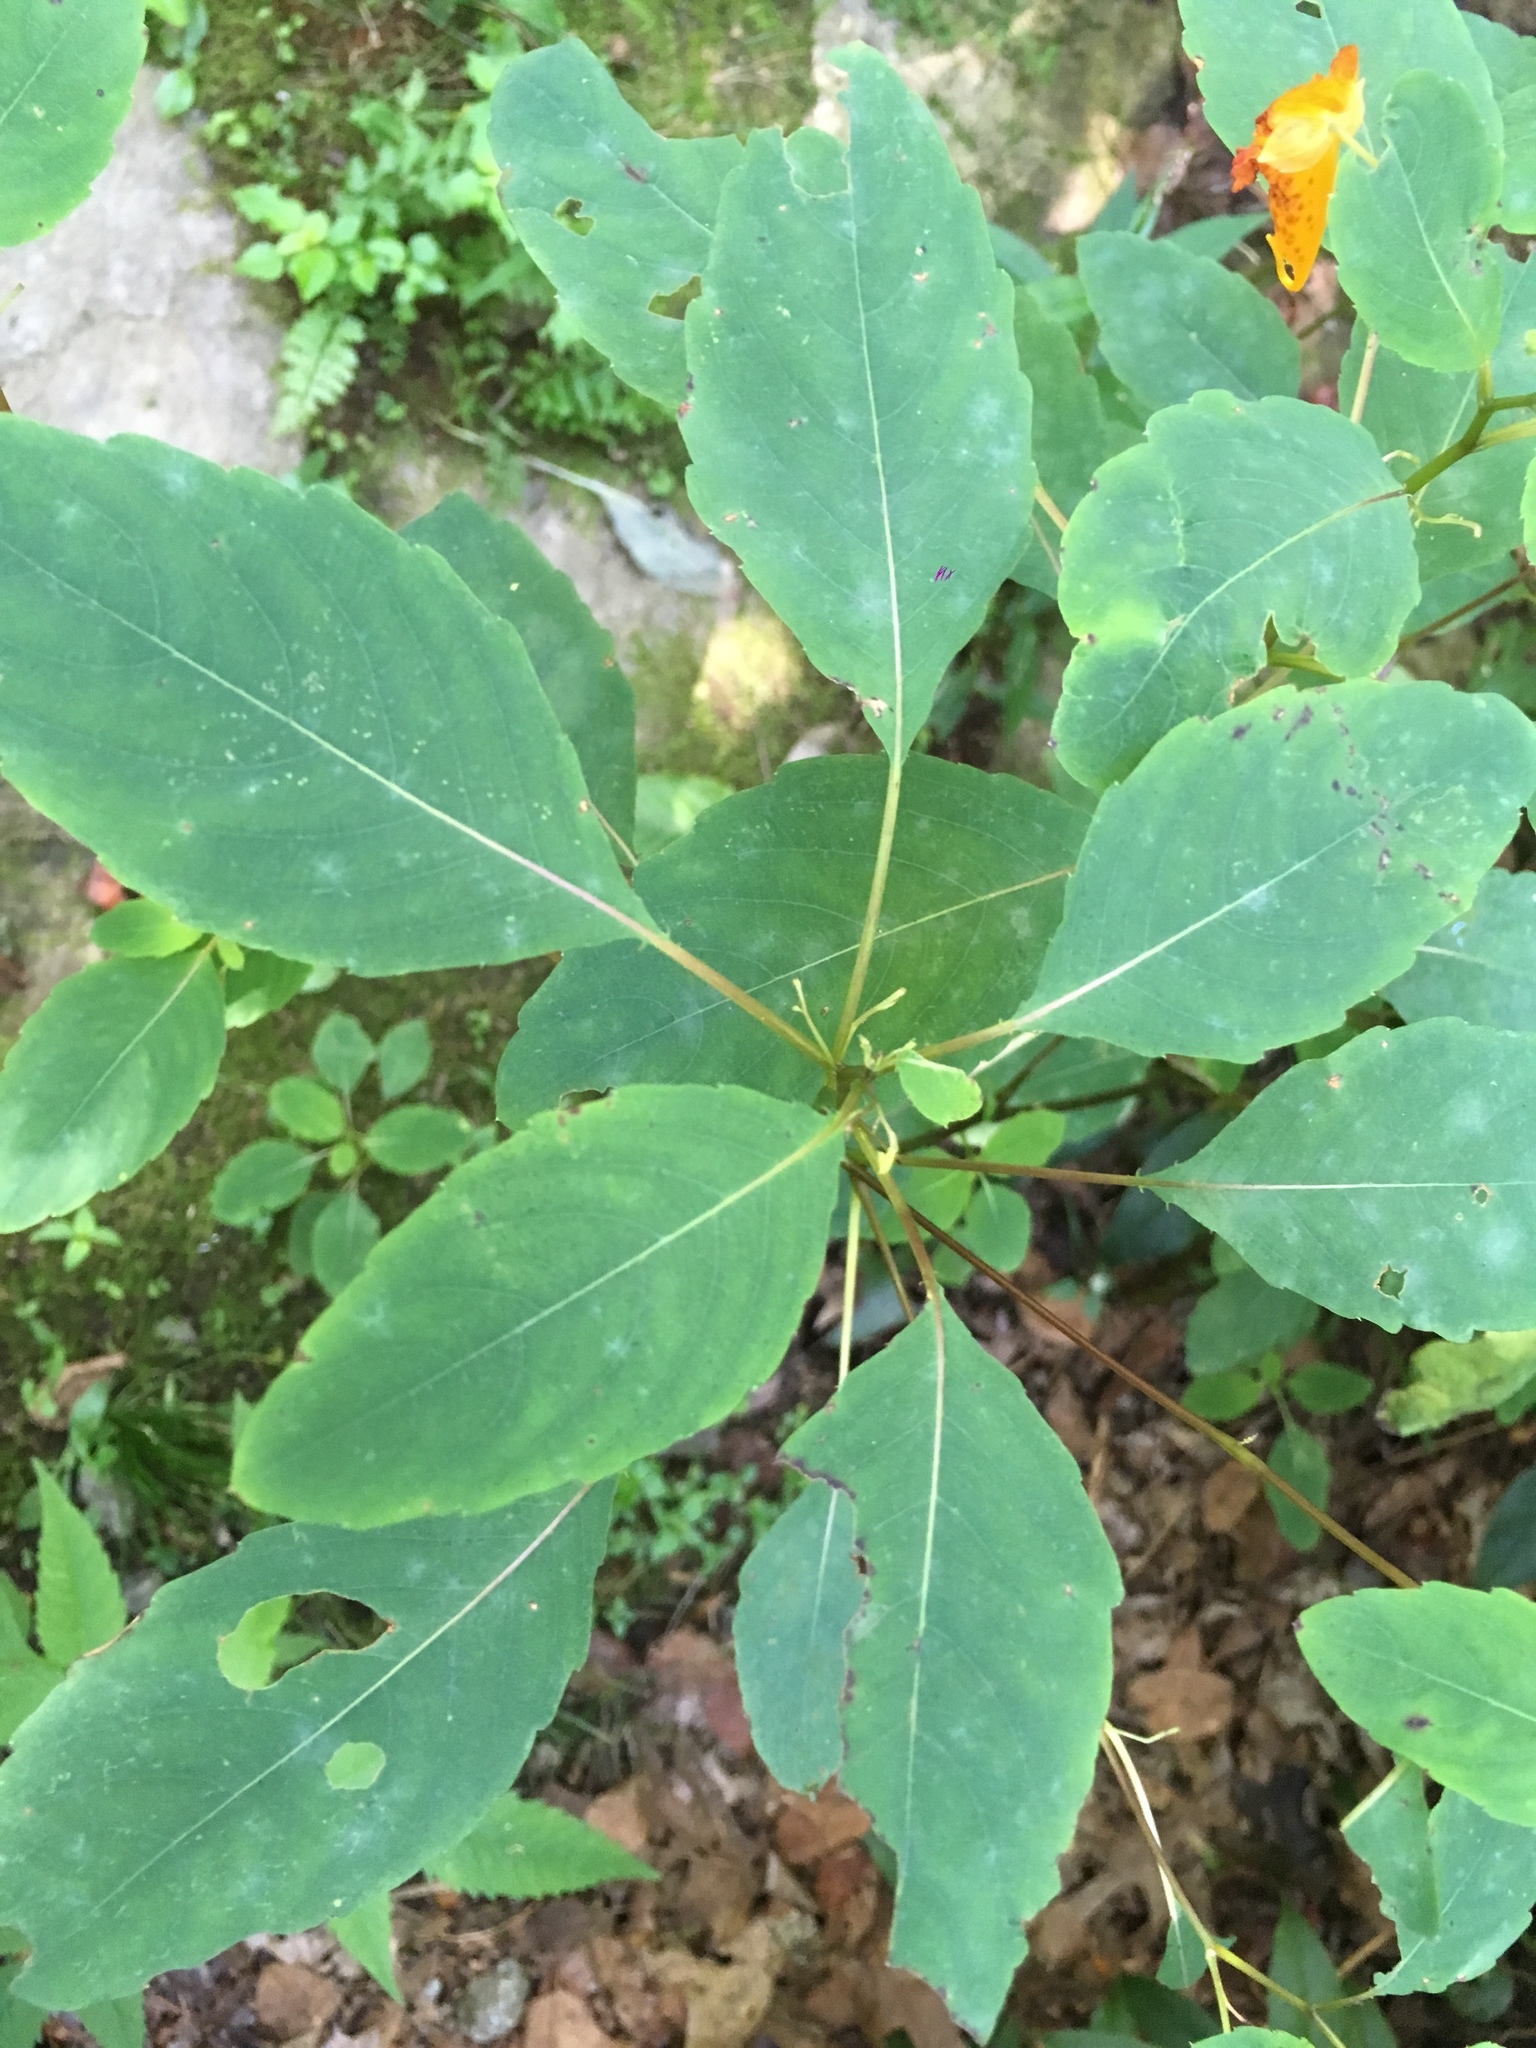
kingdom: Plantae
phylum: Tracheophyta
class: Magnoliopsida
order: Ericales
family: Balsaminaceae
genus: Impatiens
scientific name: Impatiens capensis
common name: Orange balsam
